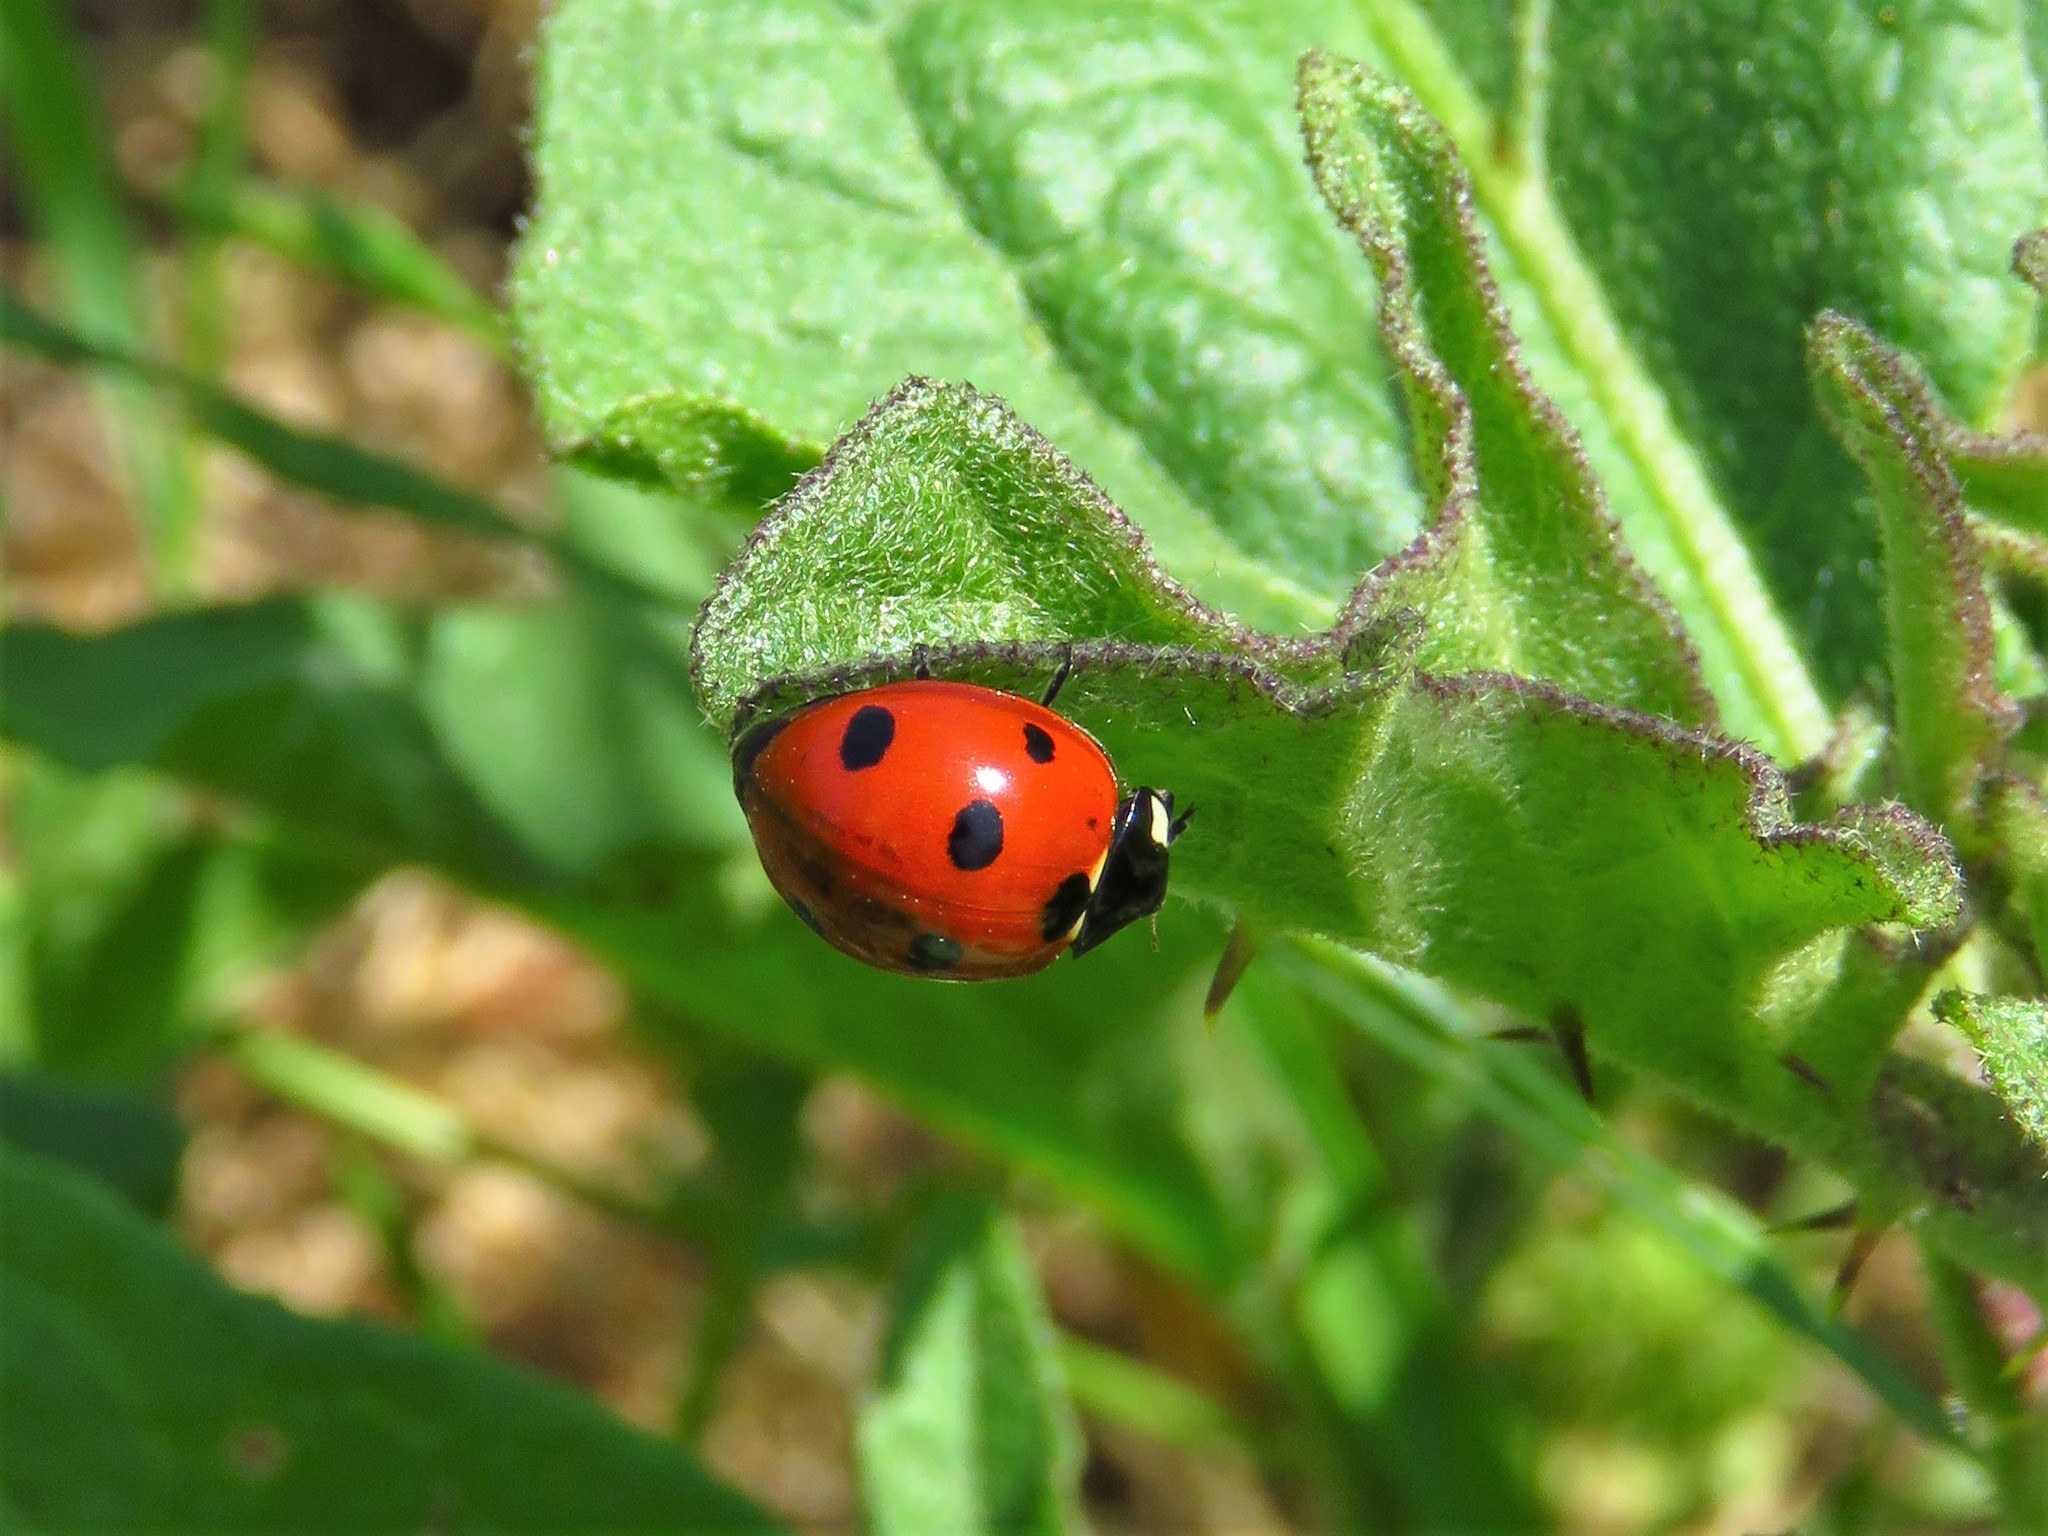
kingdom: Animalia
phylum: Arthropoda
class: Insecta
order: Coleoptera
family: Coccinellidae
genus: Coccinella
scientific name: Coccinella septempunctata
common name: Sevenspotted lady beetle
